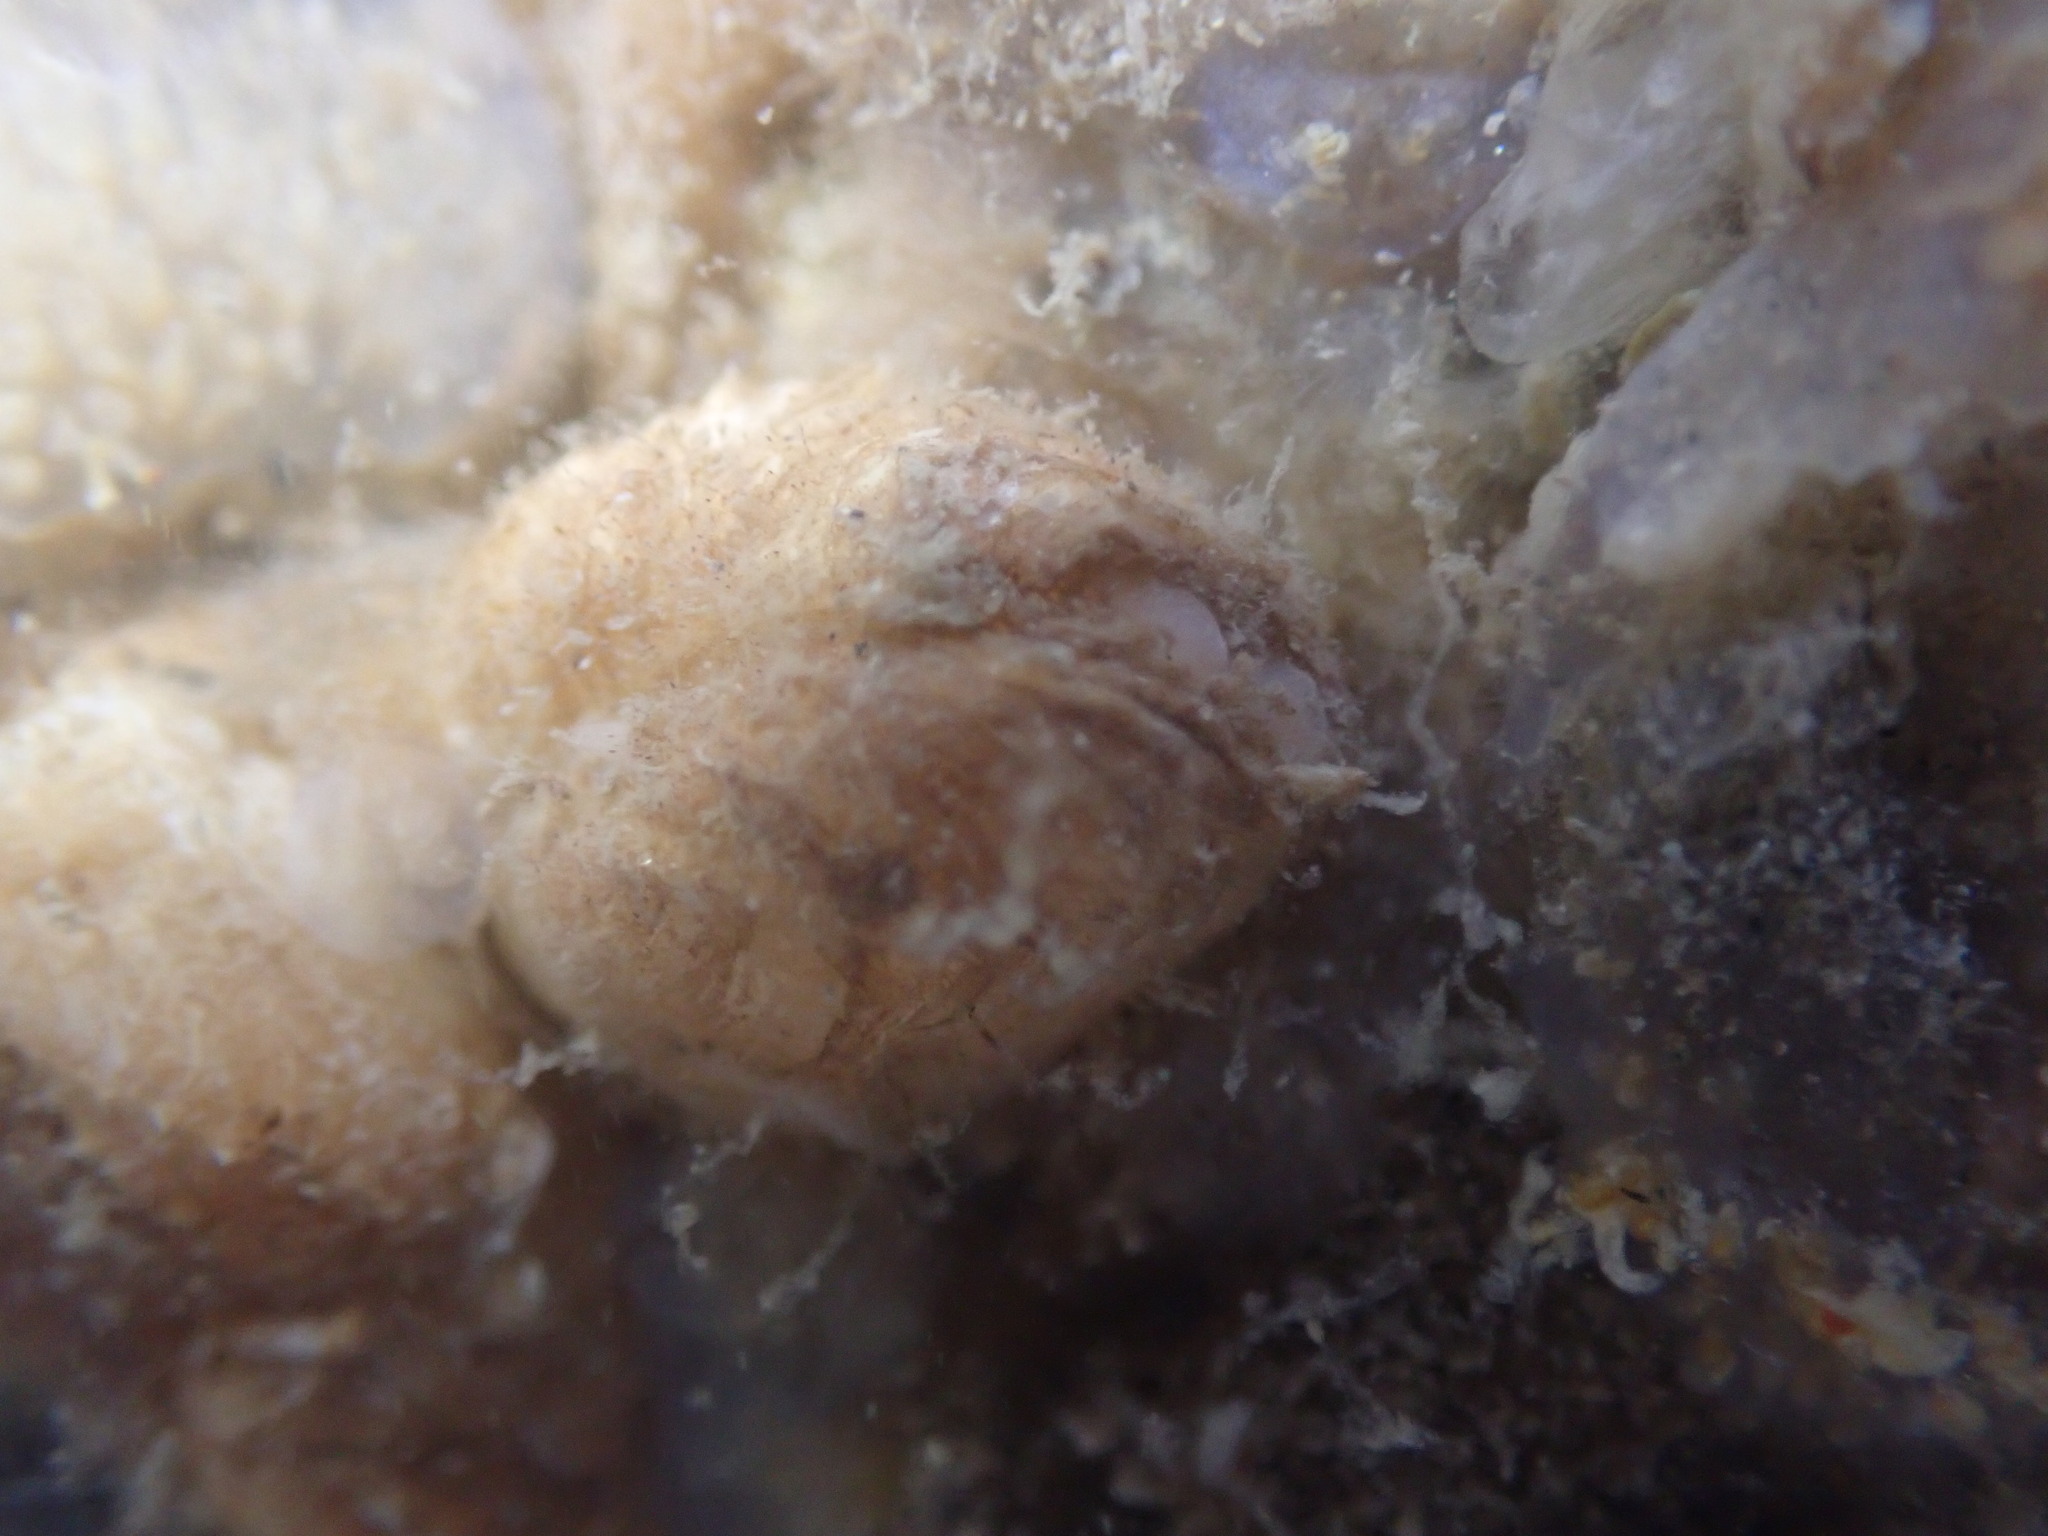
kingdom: Animalia
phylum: Mollusca
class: Bivalvia
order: Adapedonta
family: Hiatellidae
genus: Hiatella
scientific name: Hiatella arctica
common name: Arctic hiatella
